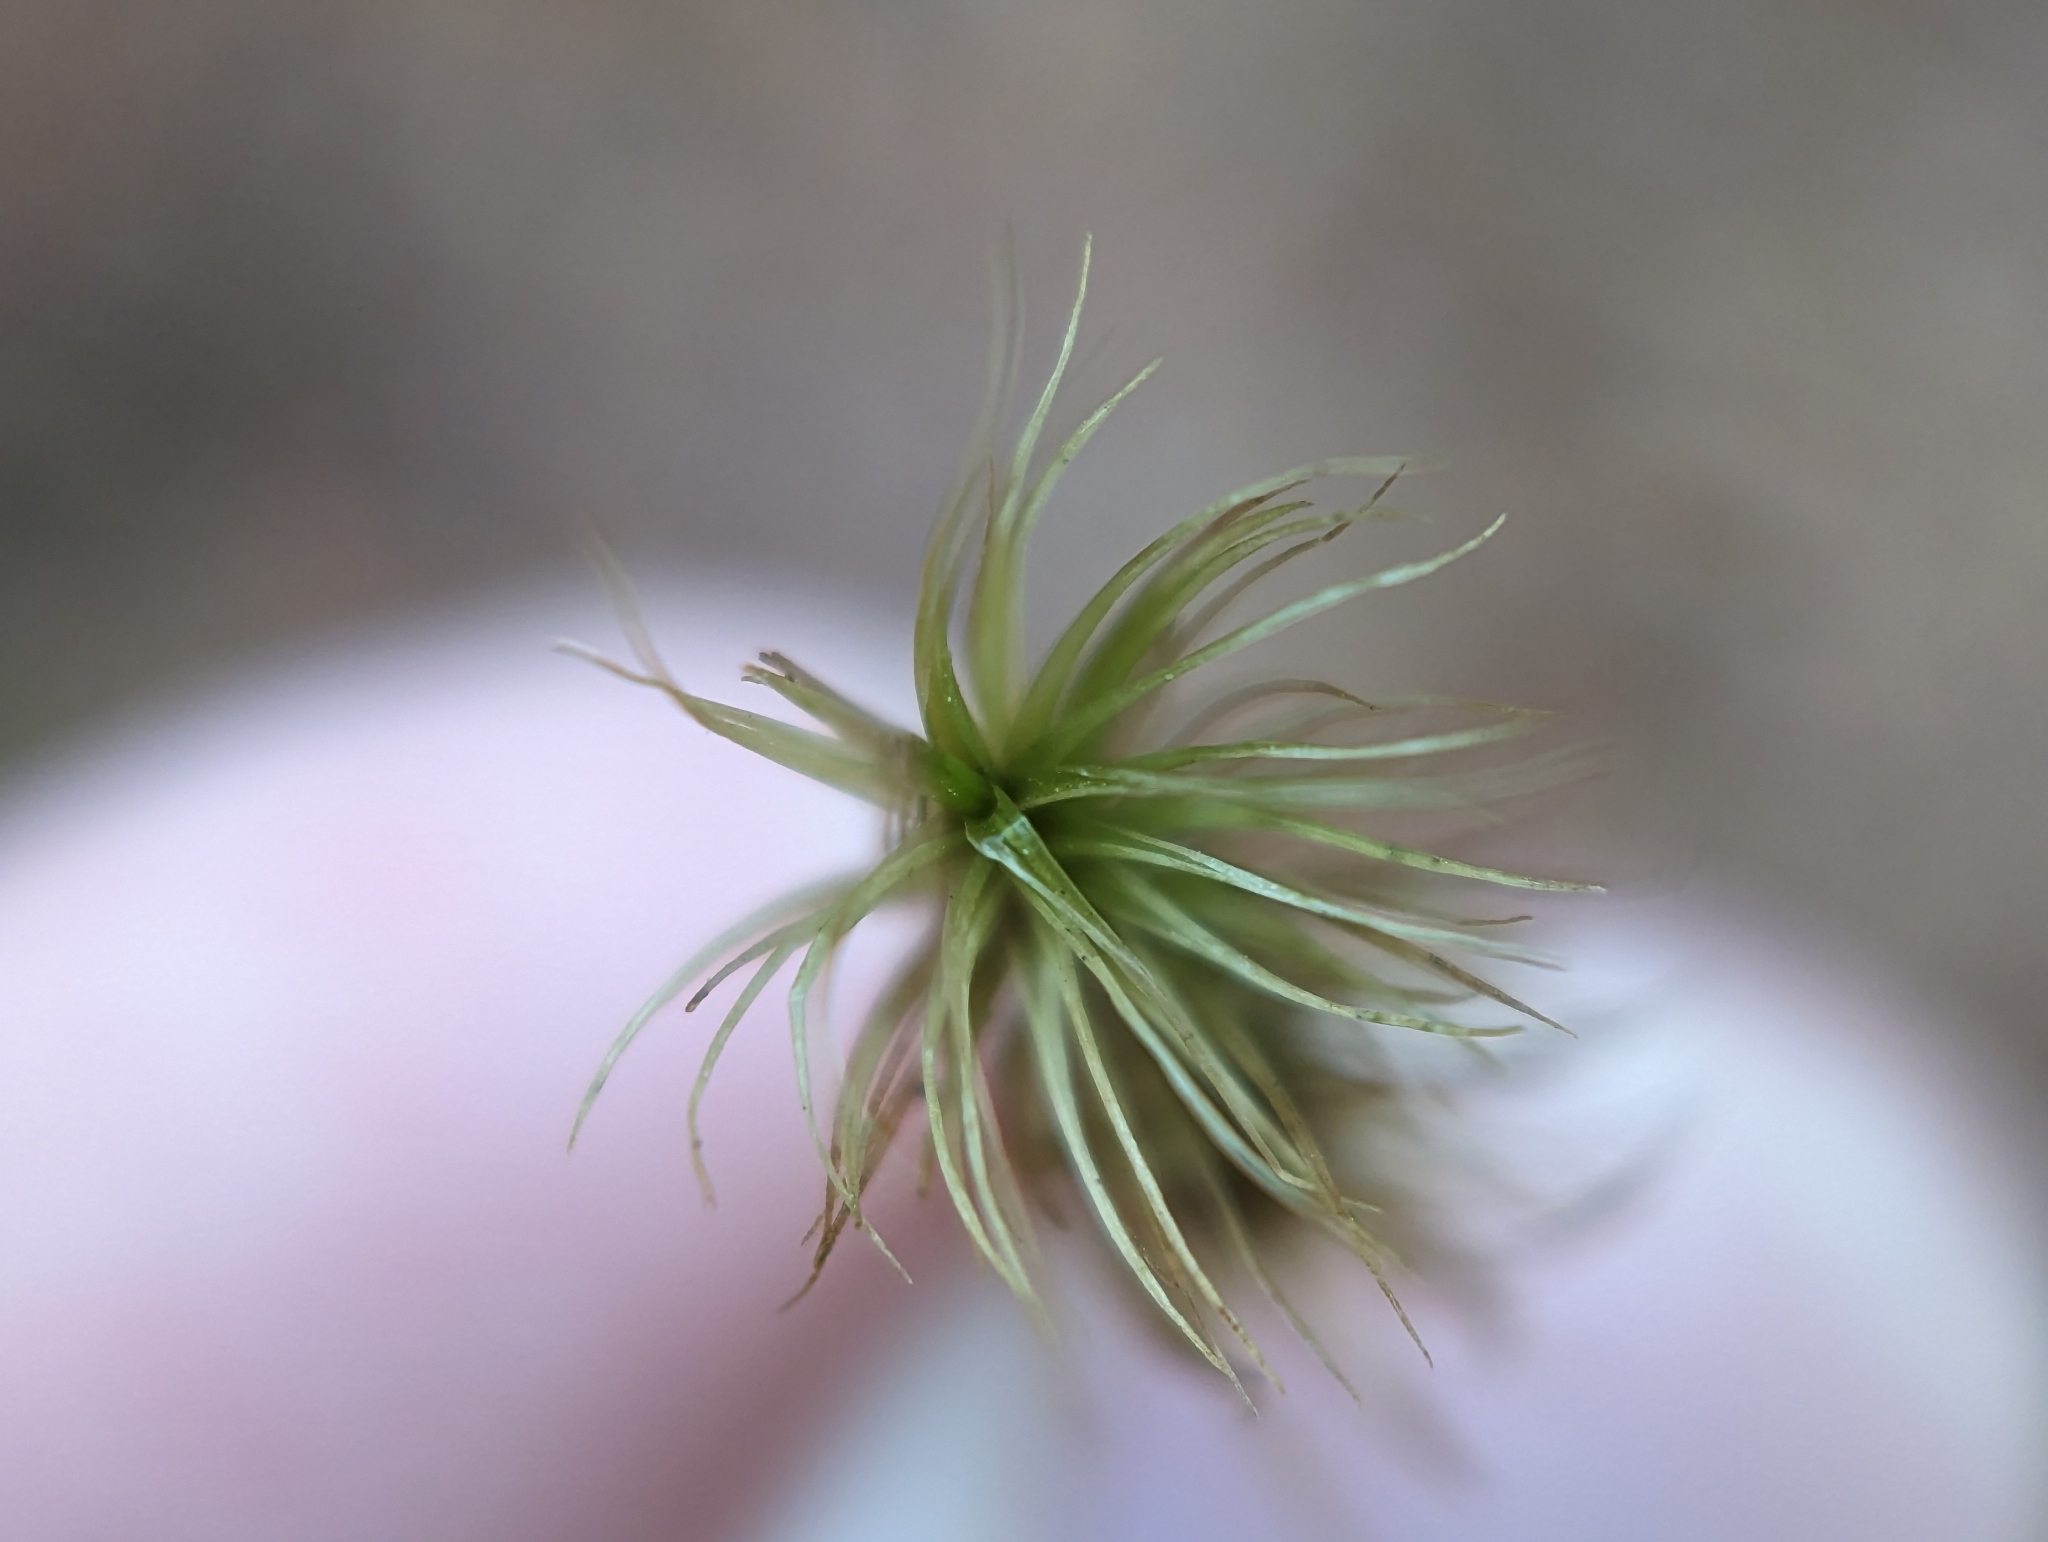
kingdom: Plantae
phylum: Bryophyta
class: Bryopsida
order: Dicranales
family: Dicranaceae
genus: Dicranum
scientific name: Dicranum scoparium
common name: Broom fork-moss
